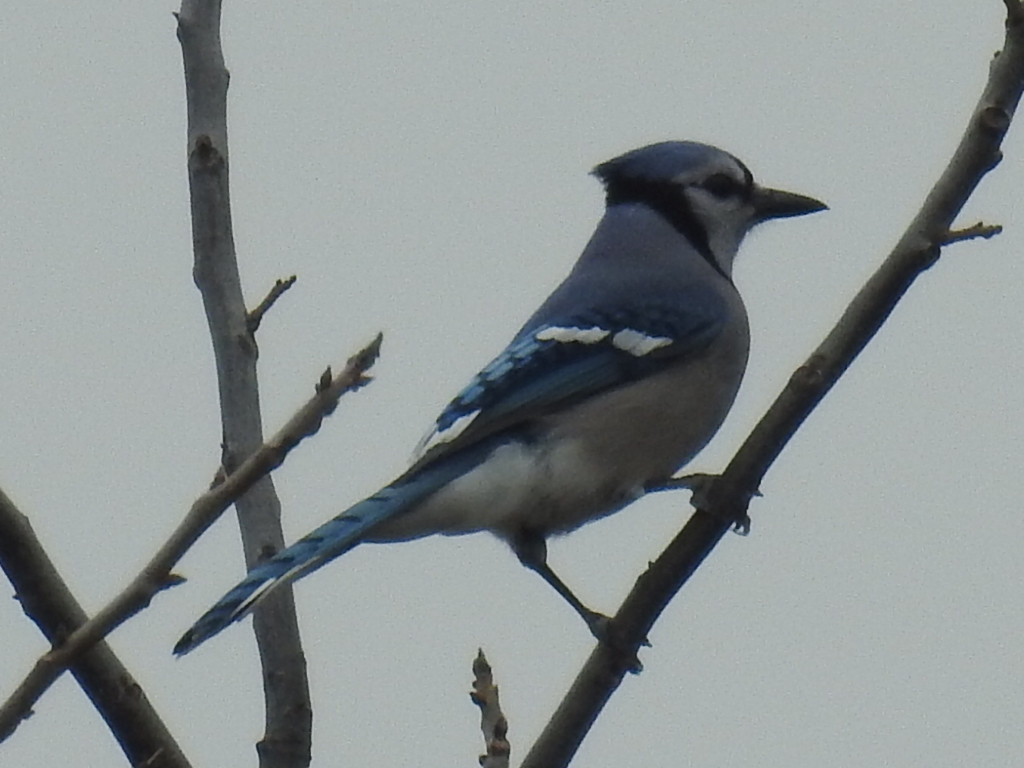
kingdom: Animalia
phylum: Chordata
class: Aves
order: Passeriformes
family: Corvidae
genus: Cyanocitta
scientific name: Cyanocitta cristata
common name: Blue jay
